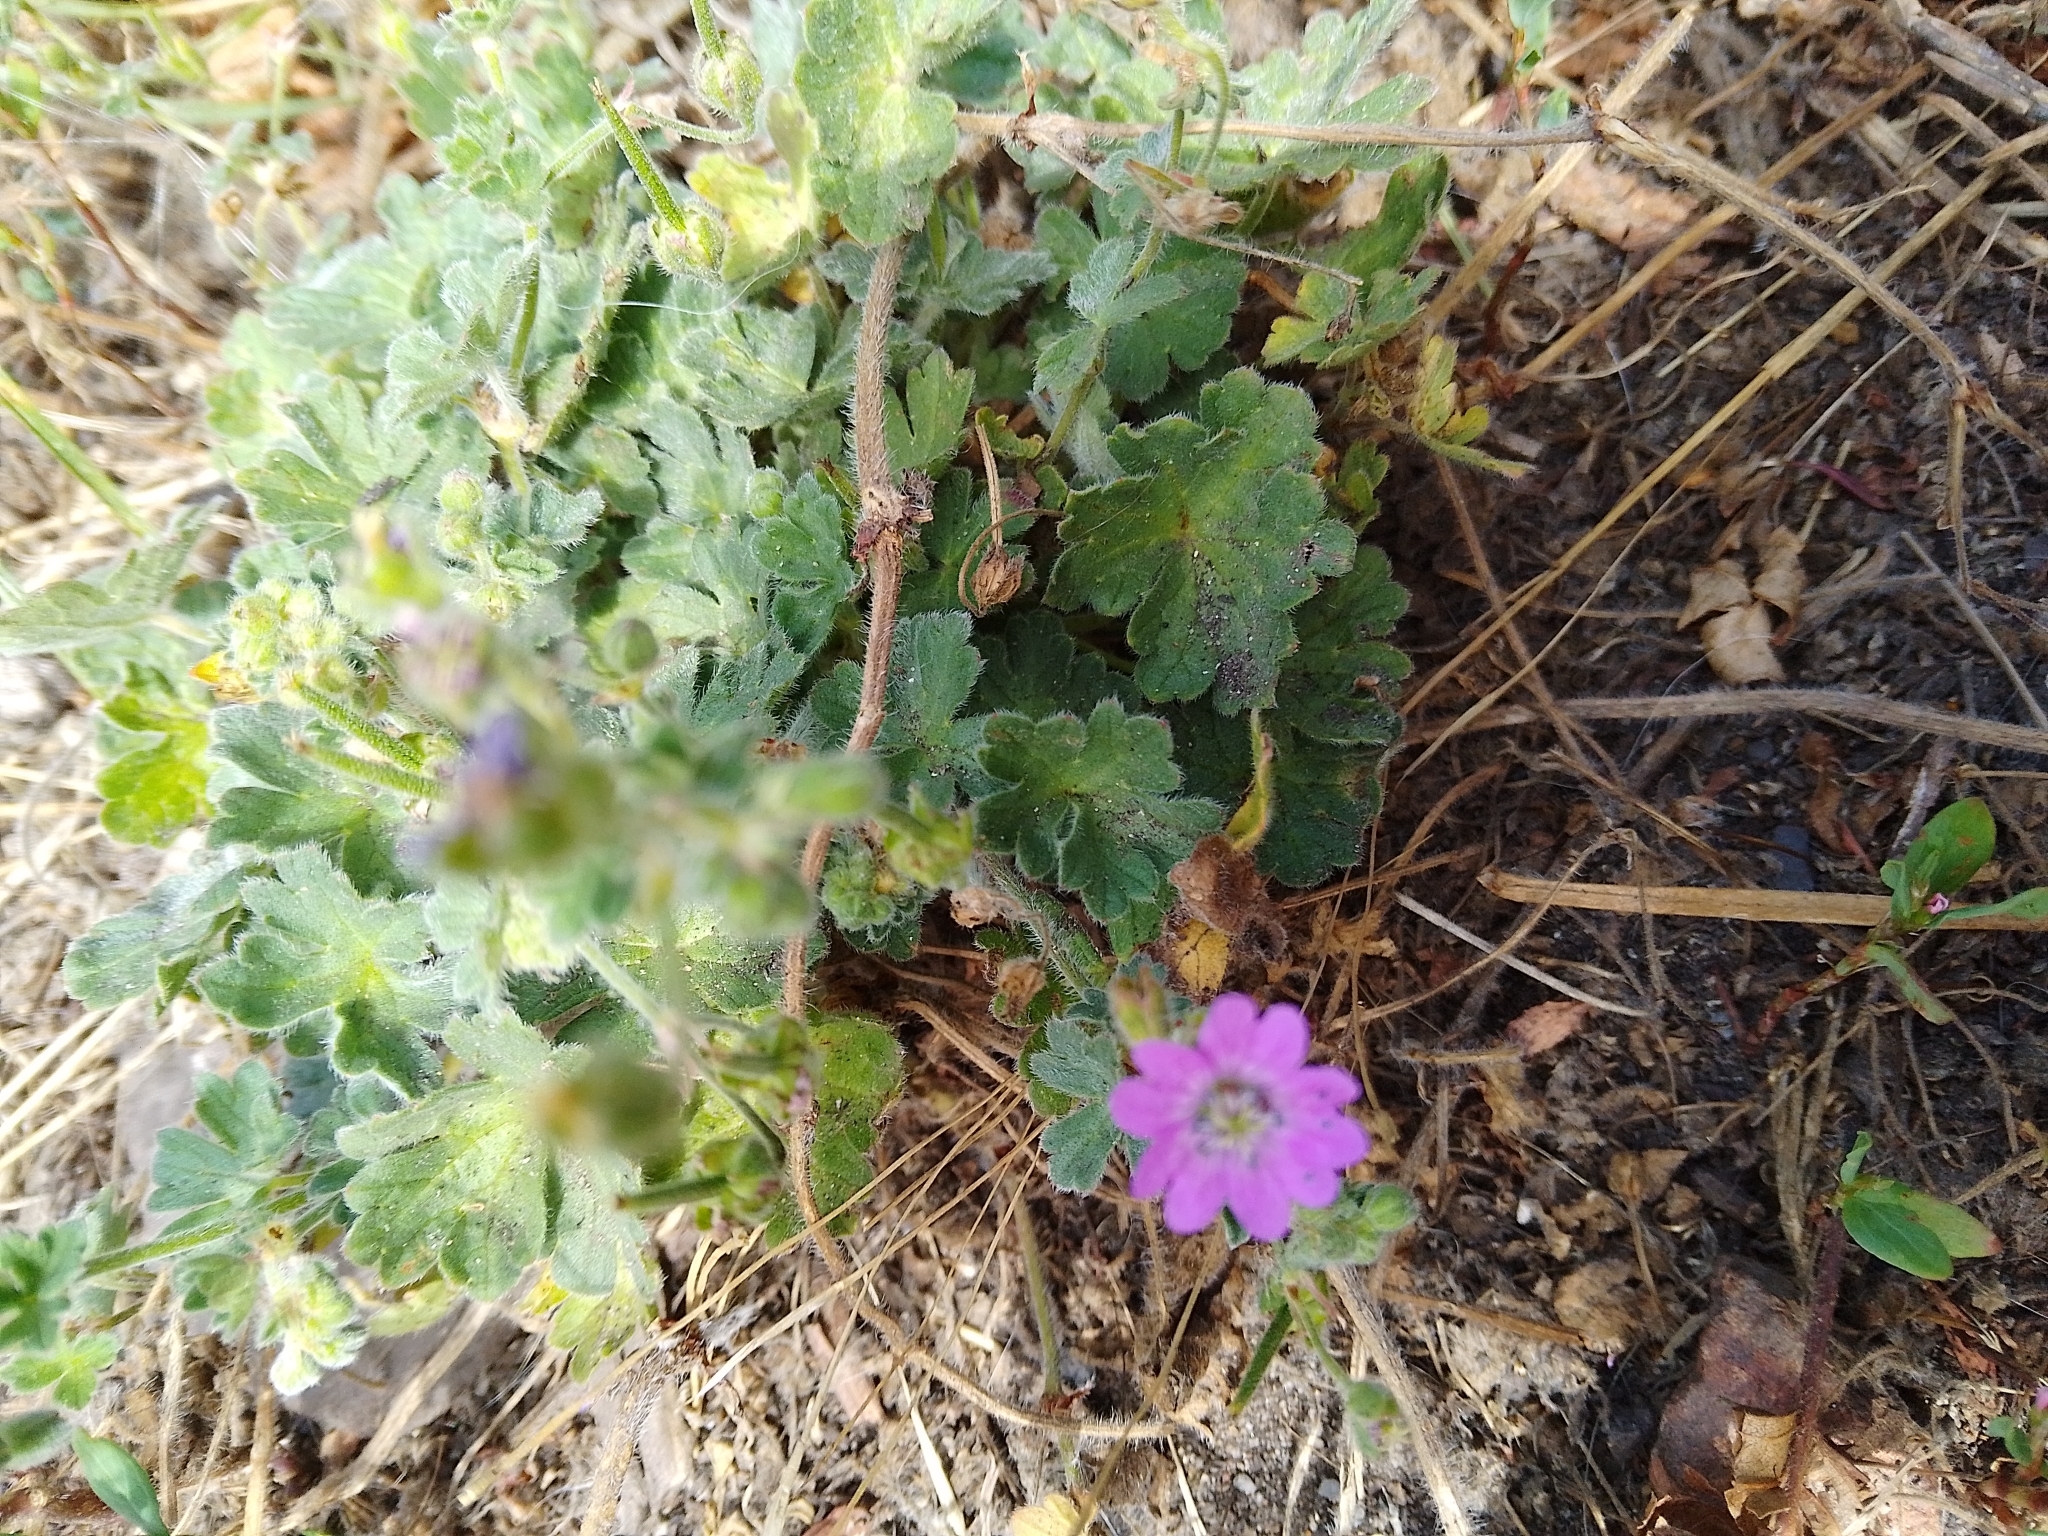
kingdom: Plantae
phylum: Tracheophyta
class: Magnoliopsida
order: Geraniales
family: Geraniaceae
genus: Geranium
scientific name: Geranium pyrenaicum
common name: Hedgerow crane's-bill
